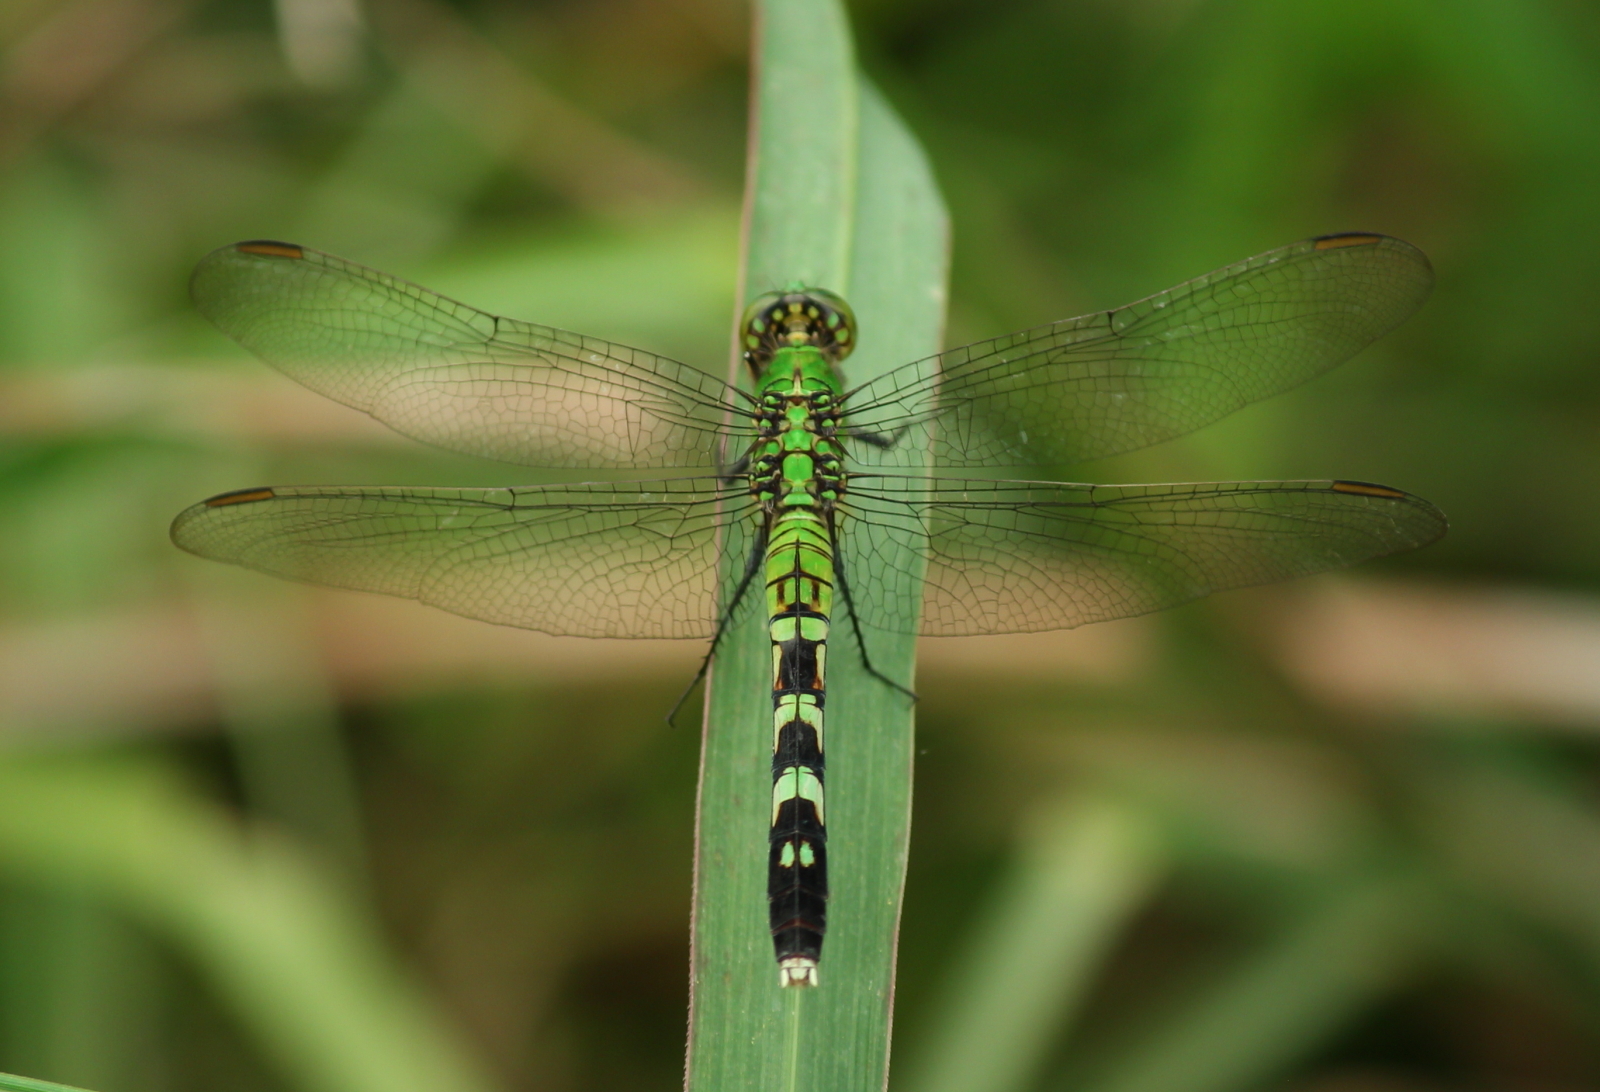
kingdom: Animalia
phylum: Arthropoda
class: Insecta
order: Odonata
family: Libellulidae
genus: Erythemis
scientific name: Erythemis simplicicollis
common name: Eastern pondhawk
